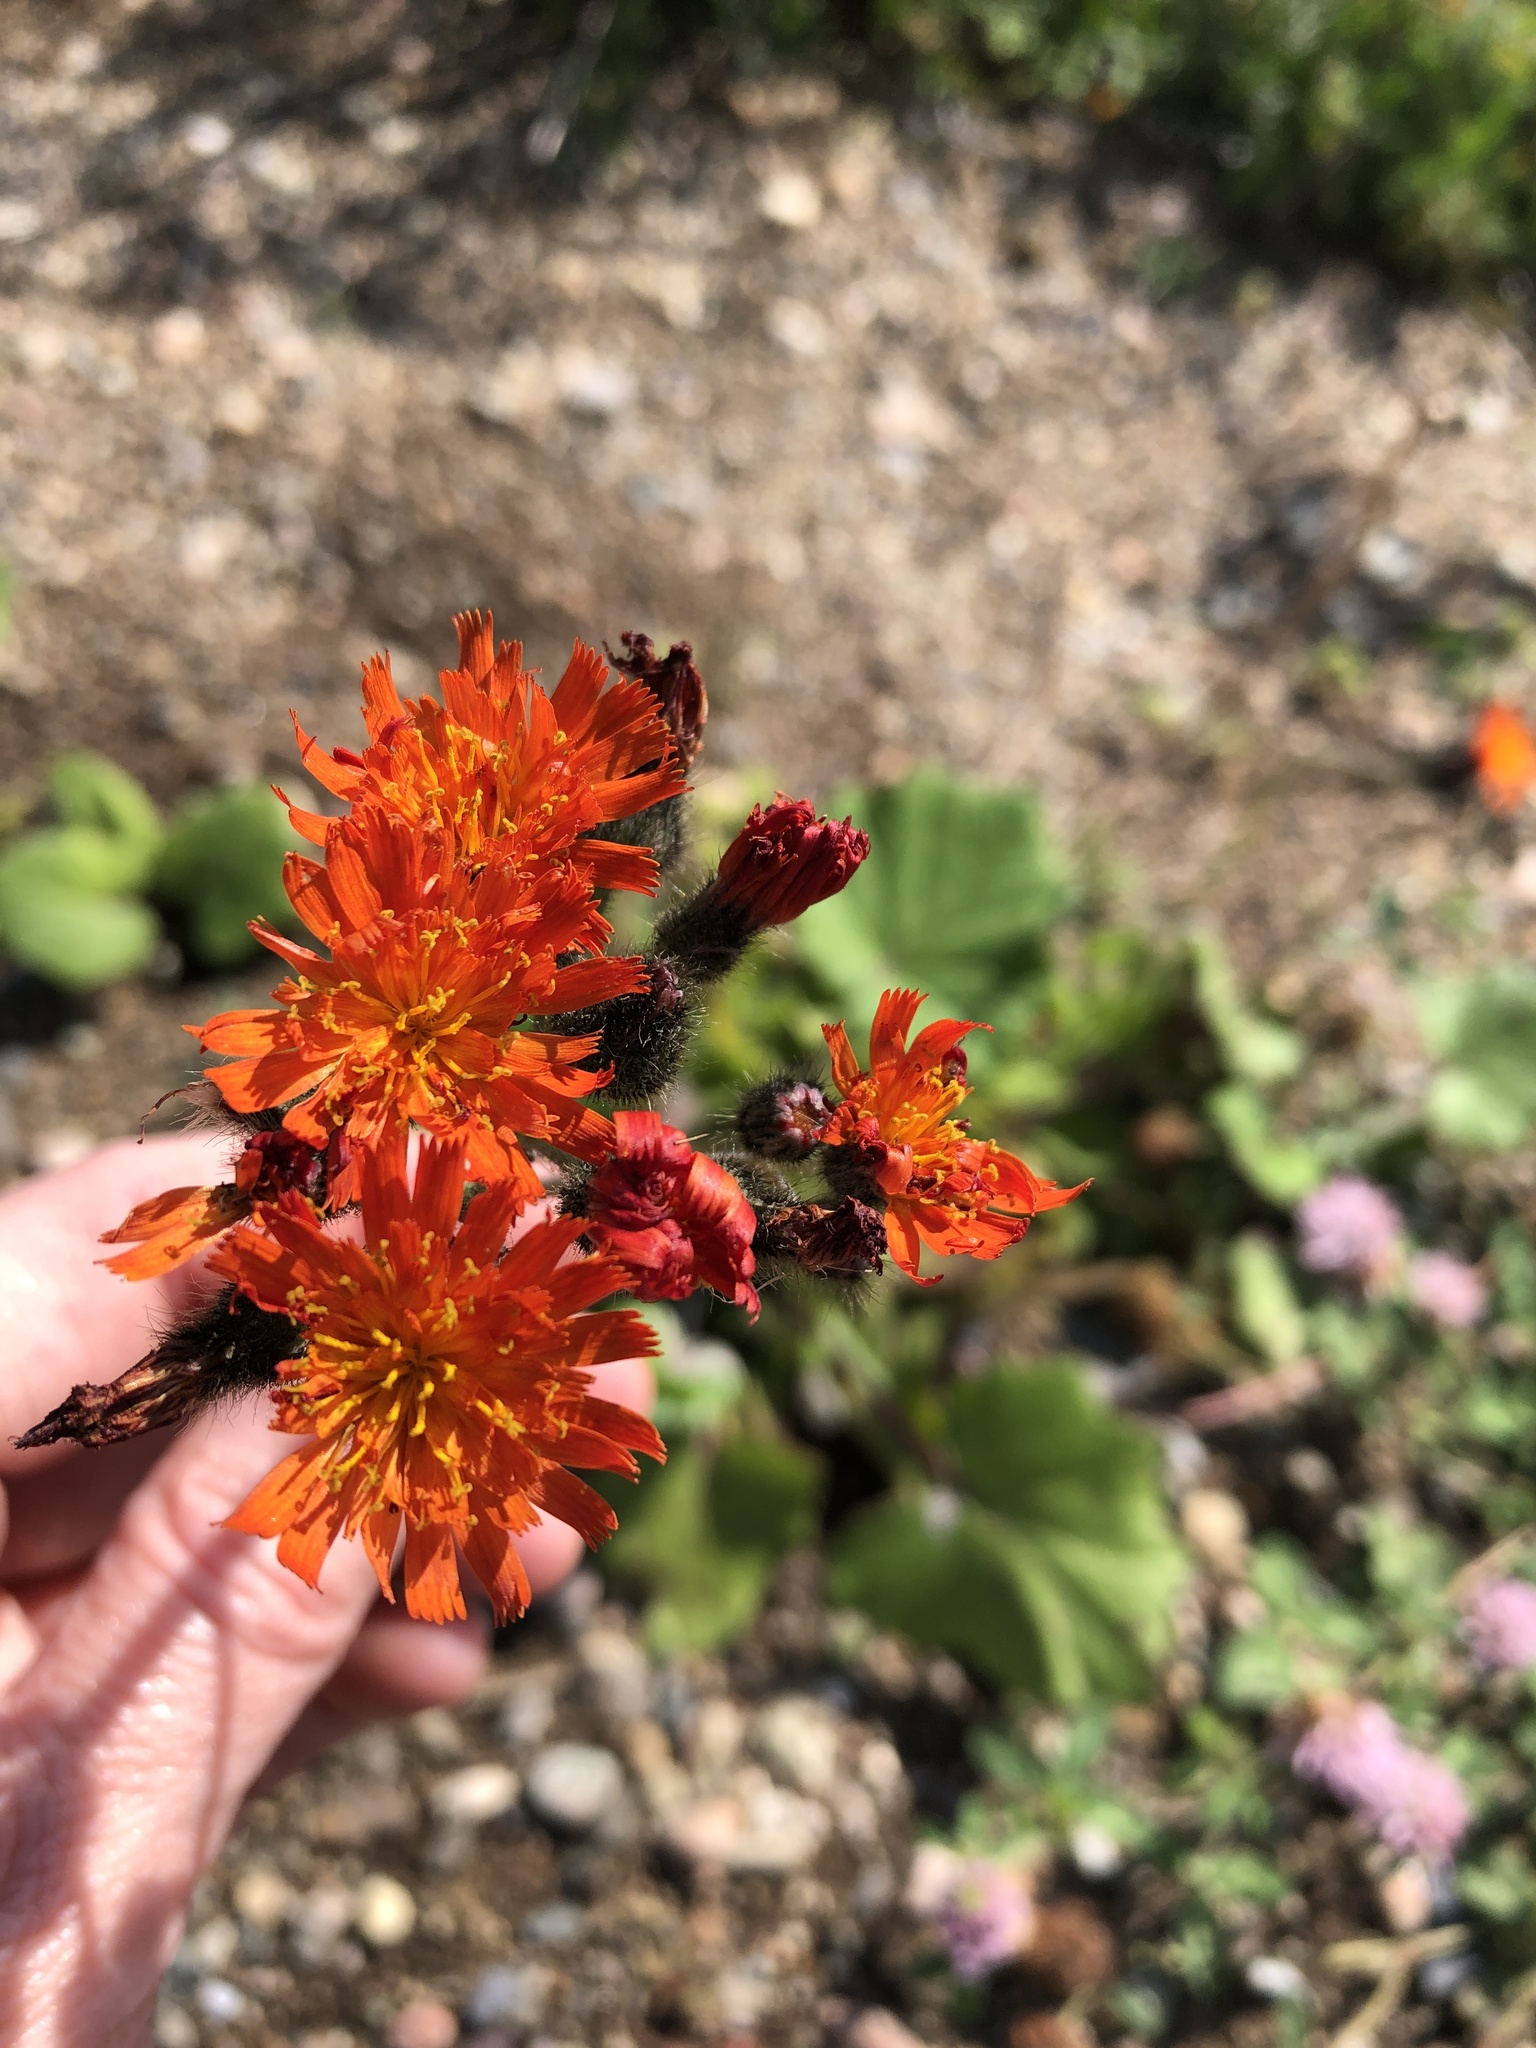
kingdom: Plantae
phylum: Tracheophyta
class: Magnoliopsida
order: Asterales
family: Asteraceae
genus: Pilosella
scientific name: Pilosella aurantiaca
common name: Fox-and-cubs
